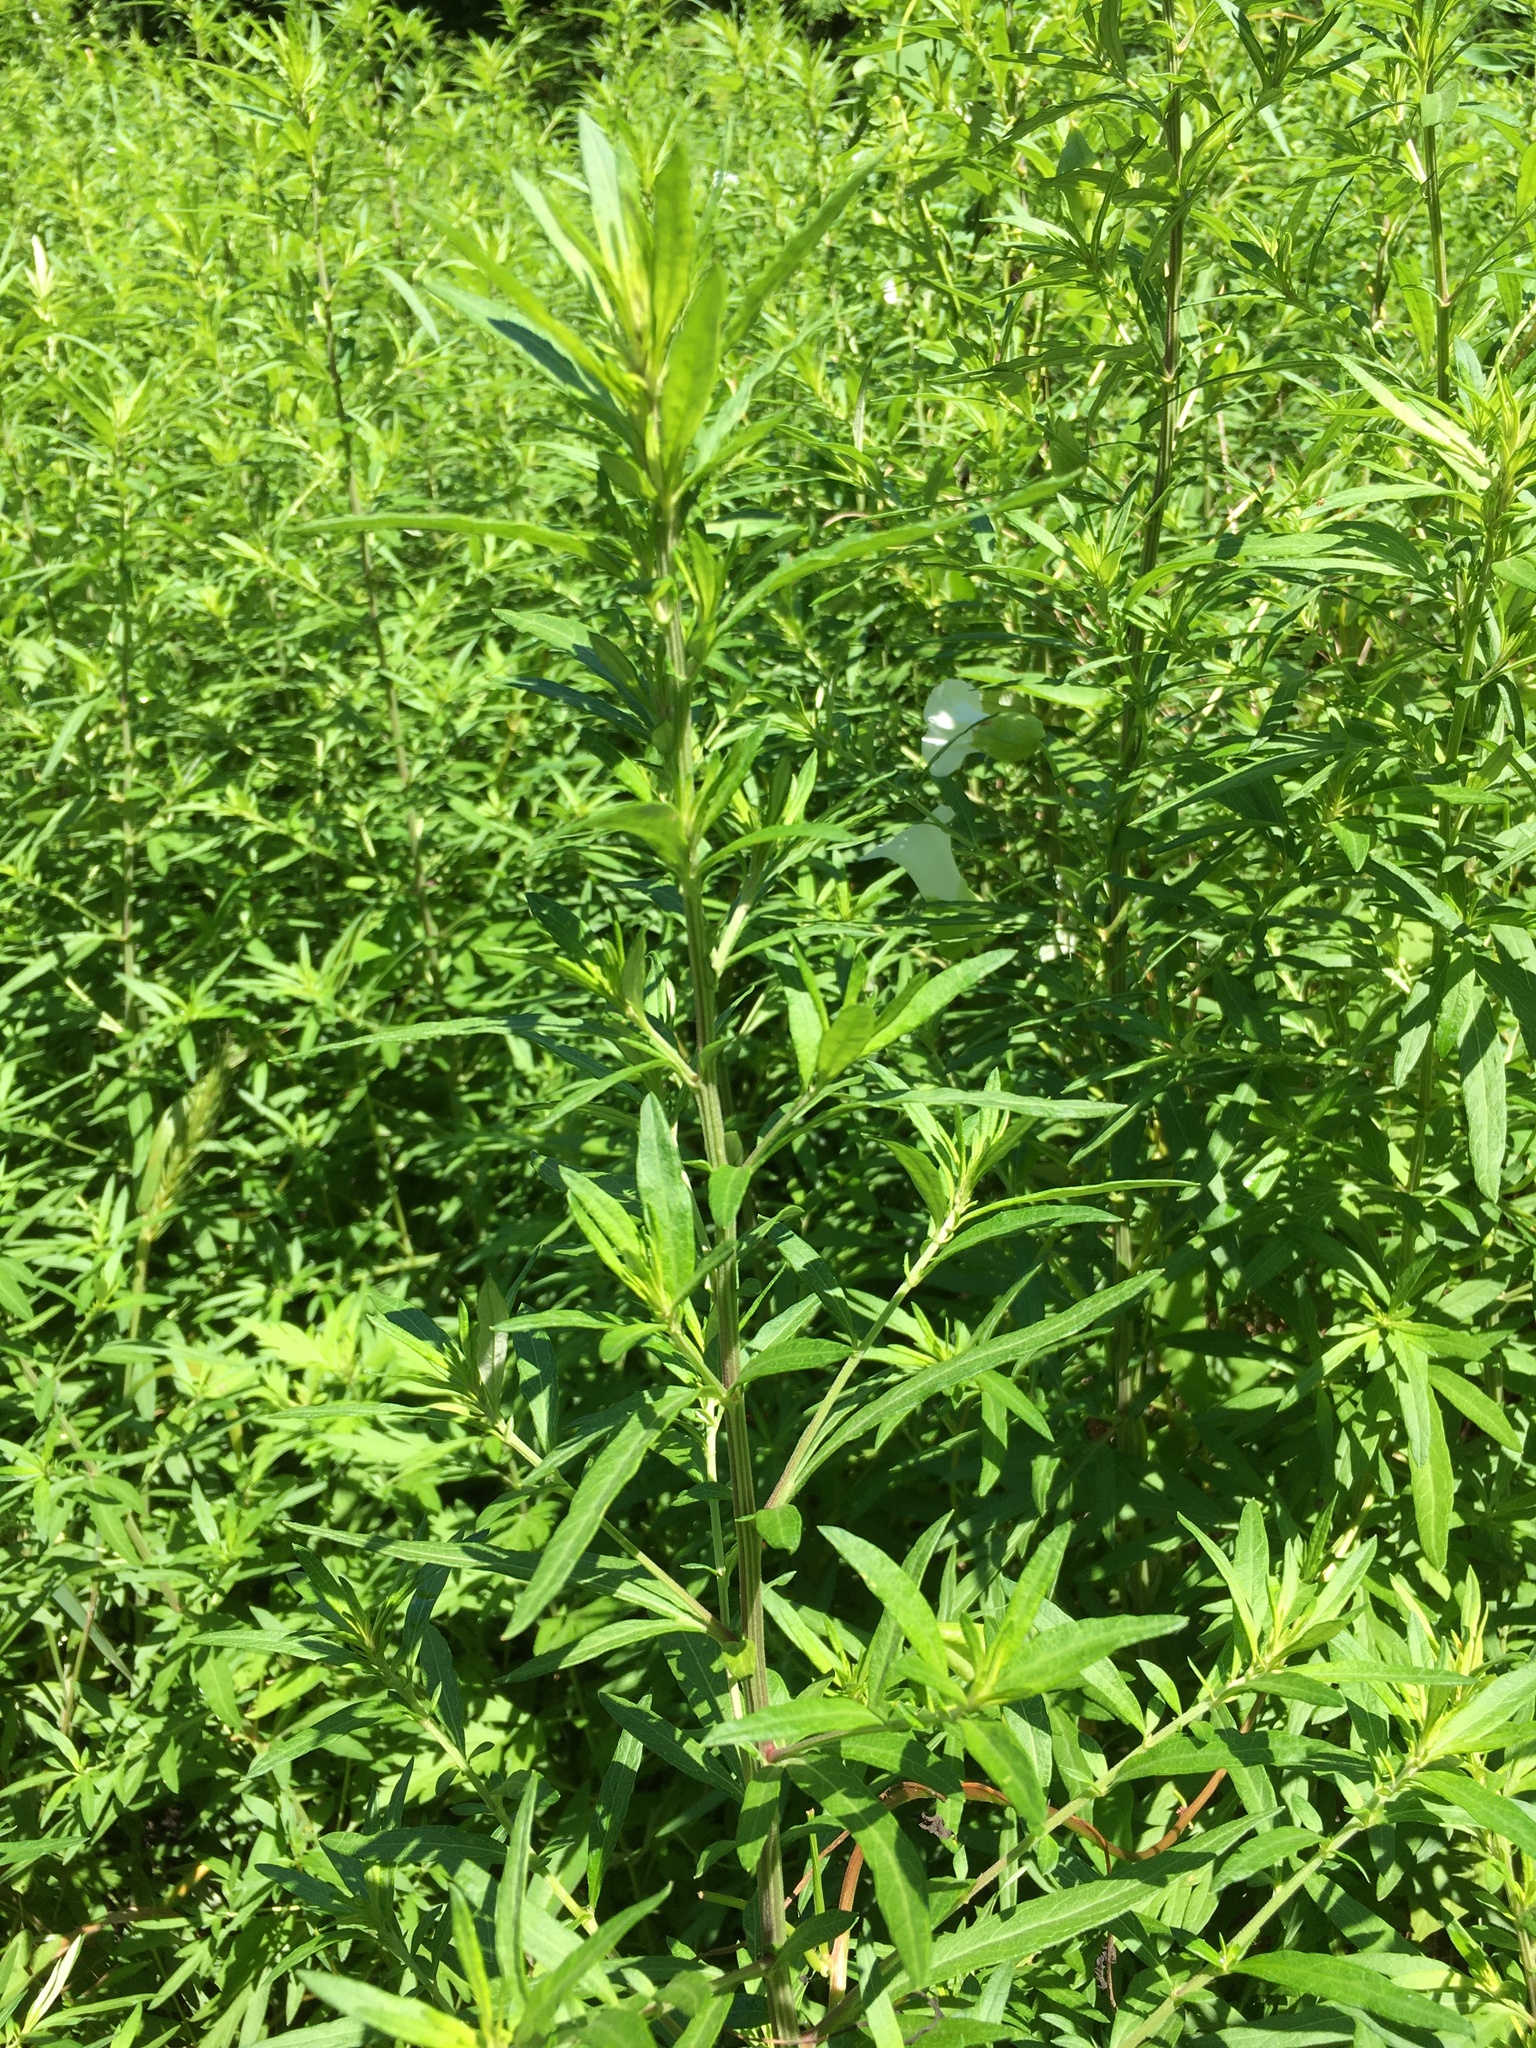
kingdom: Plantae
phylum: Tracheophyta
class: Magnoliopsida
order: Asterales
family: Asteraceae
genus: Artemisia
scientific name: Artemisia vulgaris
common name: Mugwort
